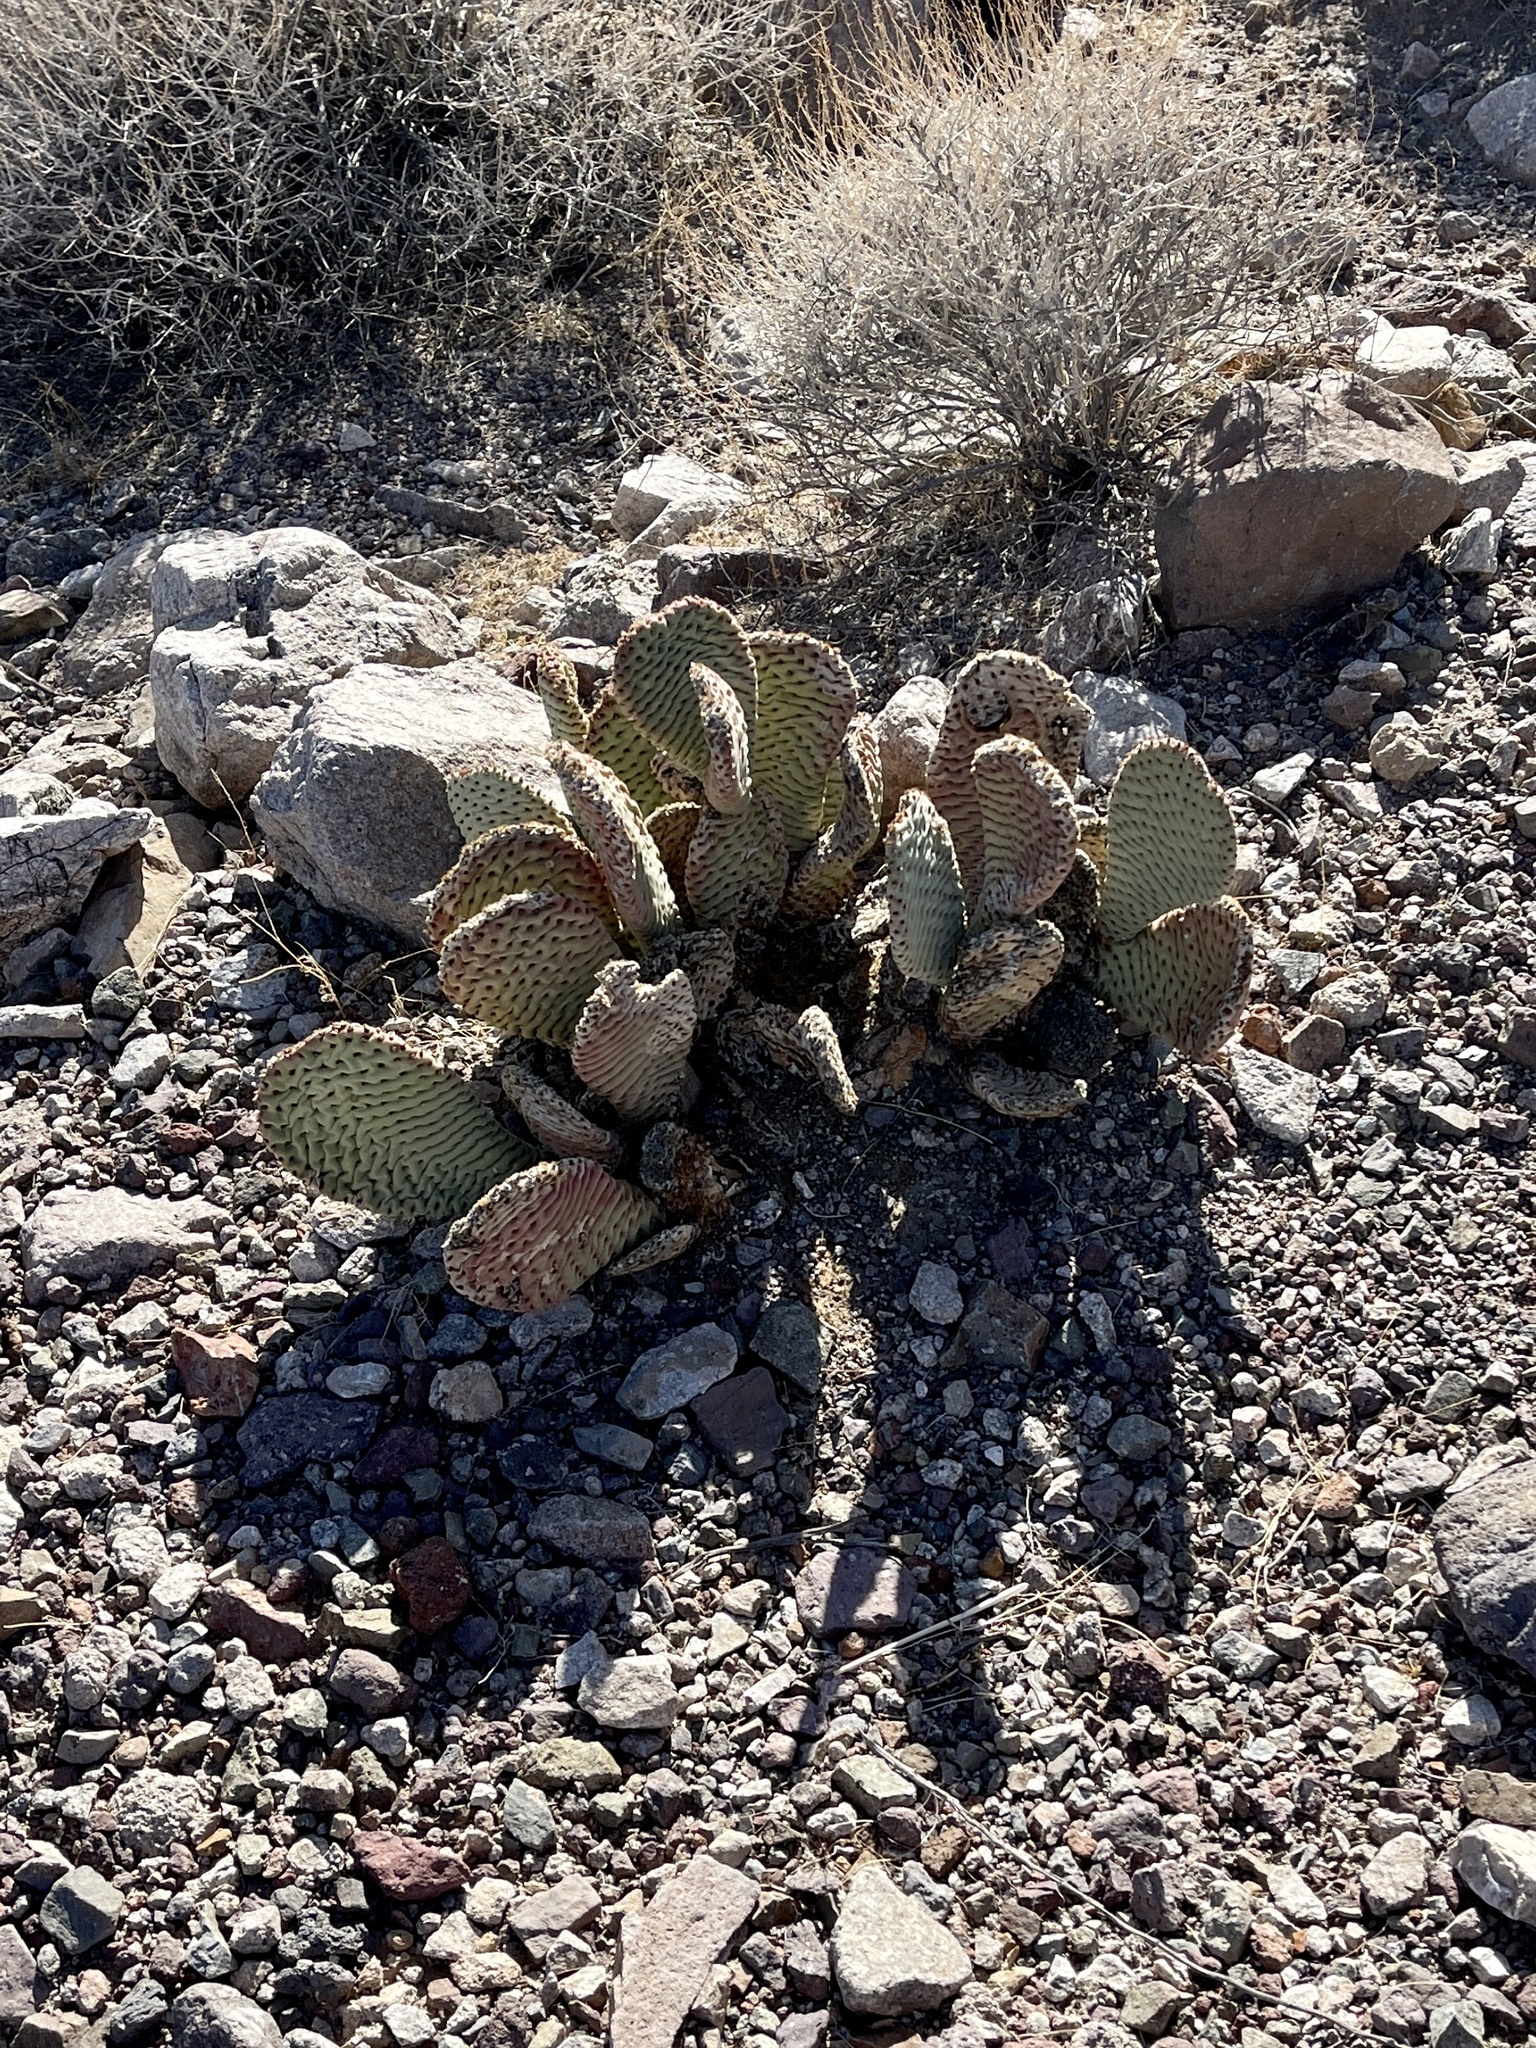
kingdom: Plantae
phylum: Tracheophyta
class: Magnoliopsida
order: Caryophyllales
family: Cactaceae
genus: Opuntia
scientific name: Opuntia basilaris
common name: Beavertail prickly-pear
